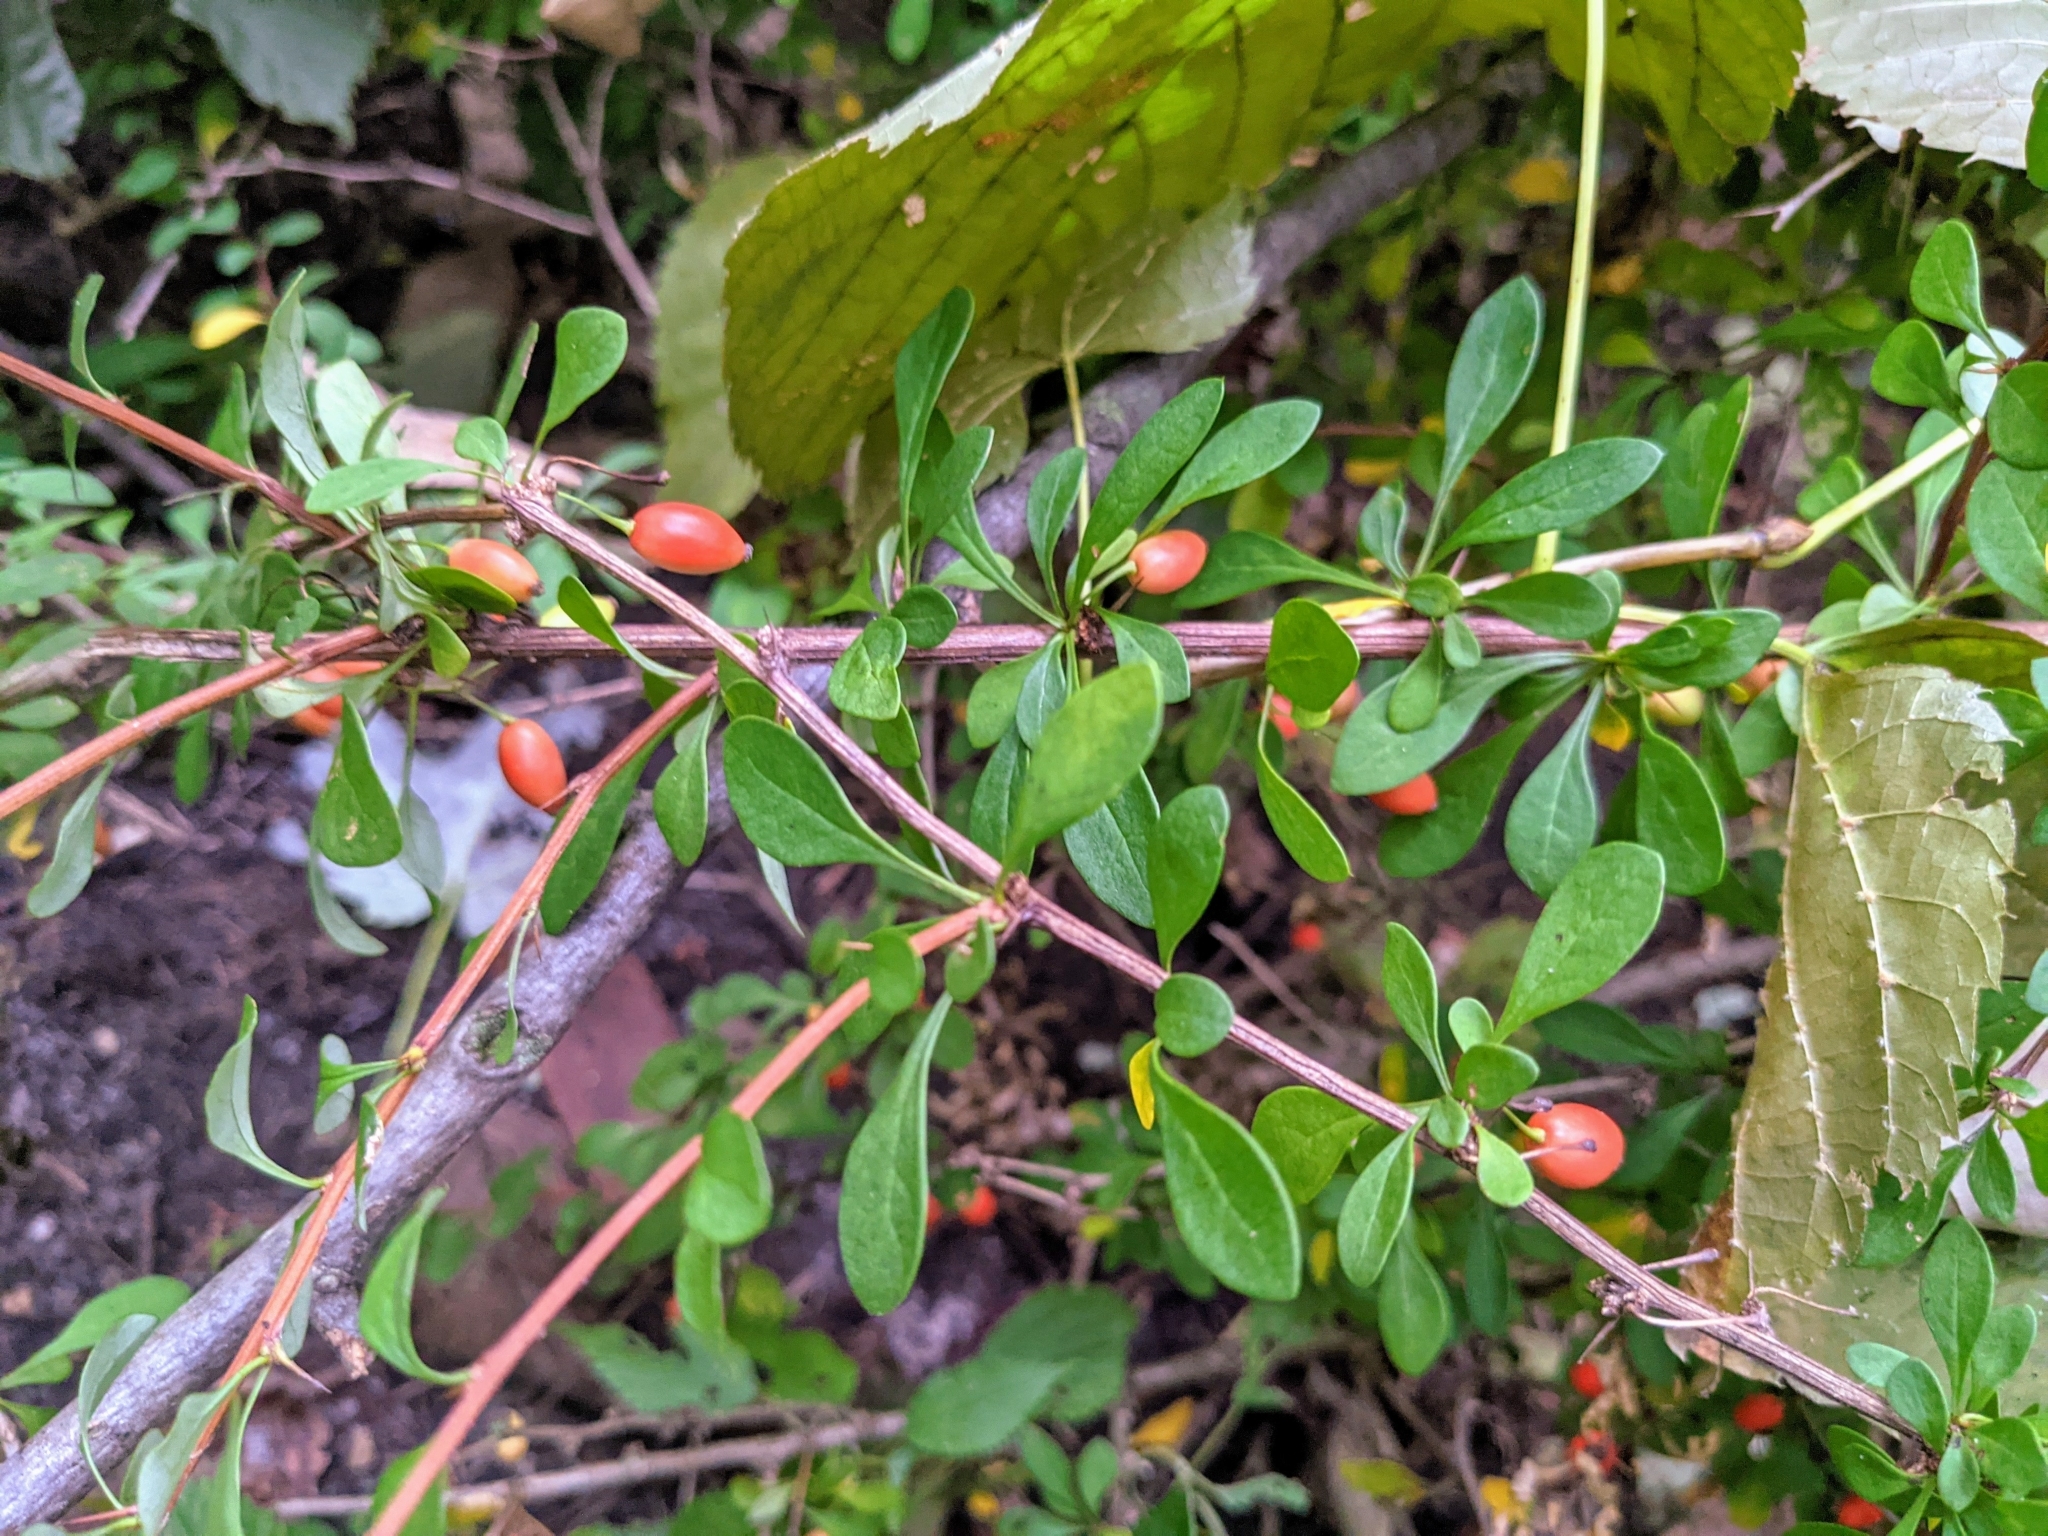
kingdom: Plantae
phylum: Tracheophyta
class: Magnoliopsida
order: Ranunculales
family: Berberidaceae
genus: Berberis
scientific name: Berberis thunbergii
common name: Japanese barberry
